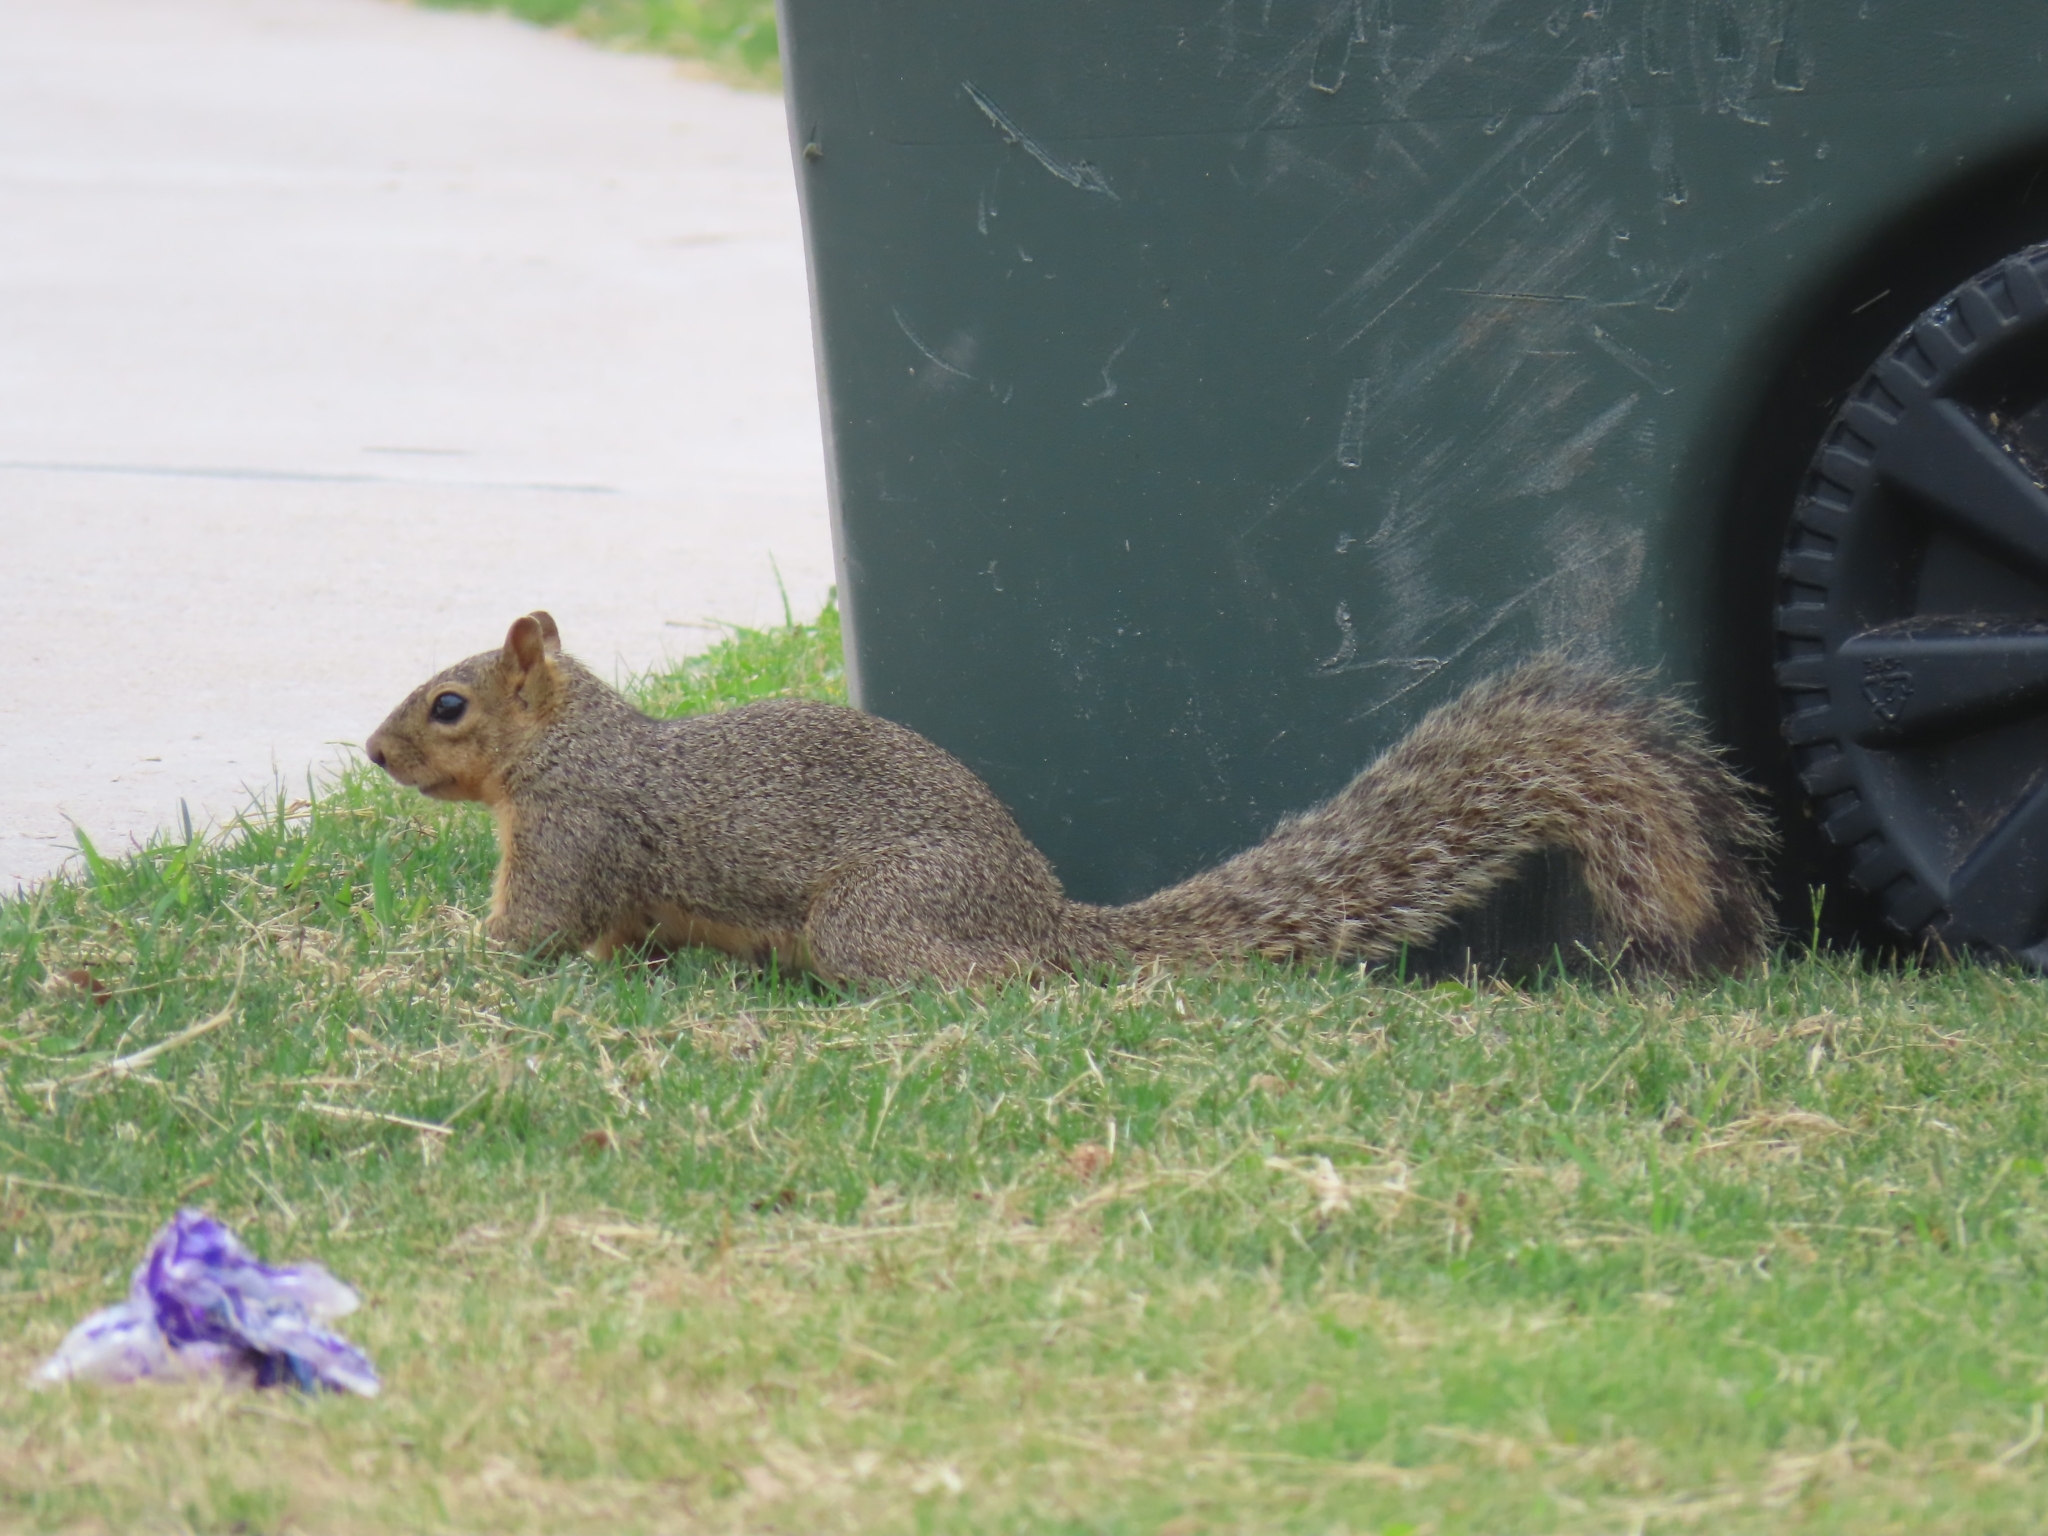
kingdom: Animalia
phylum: Chordata
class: Mammalia
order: Rodentia
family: Sciuridae
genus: Sciurus
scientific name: Sciurus niger
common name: Fox squirrel
